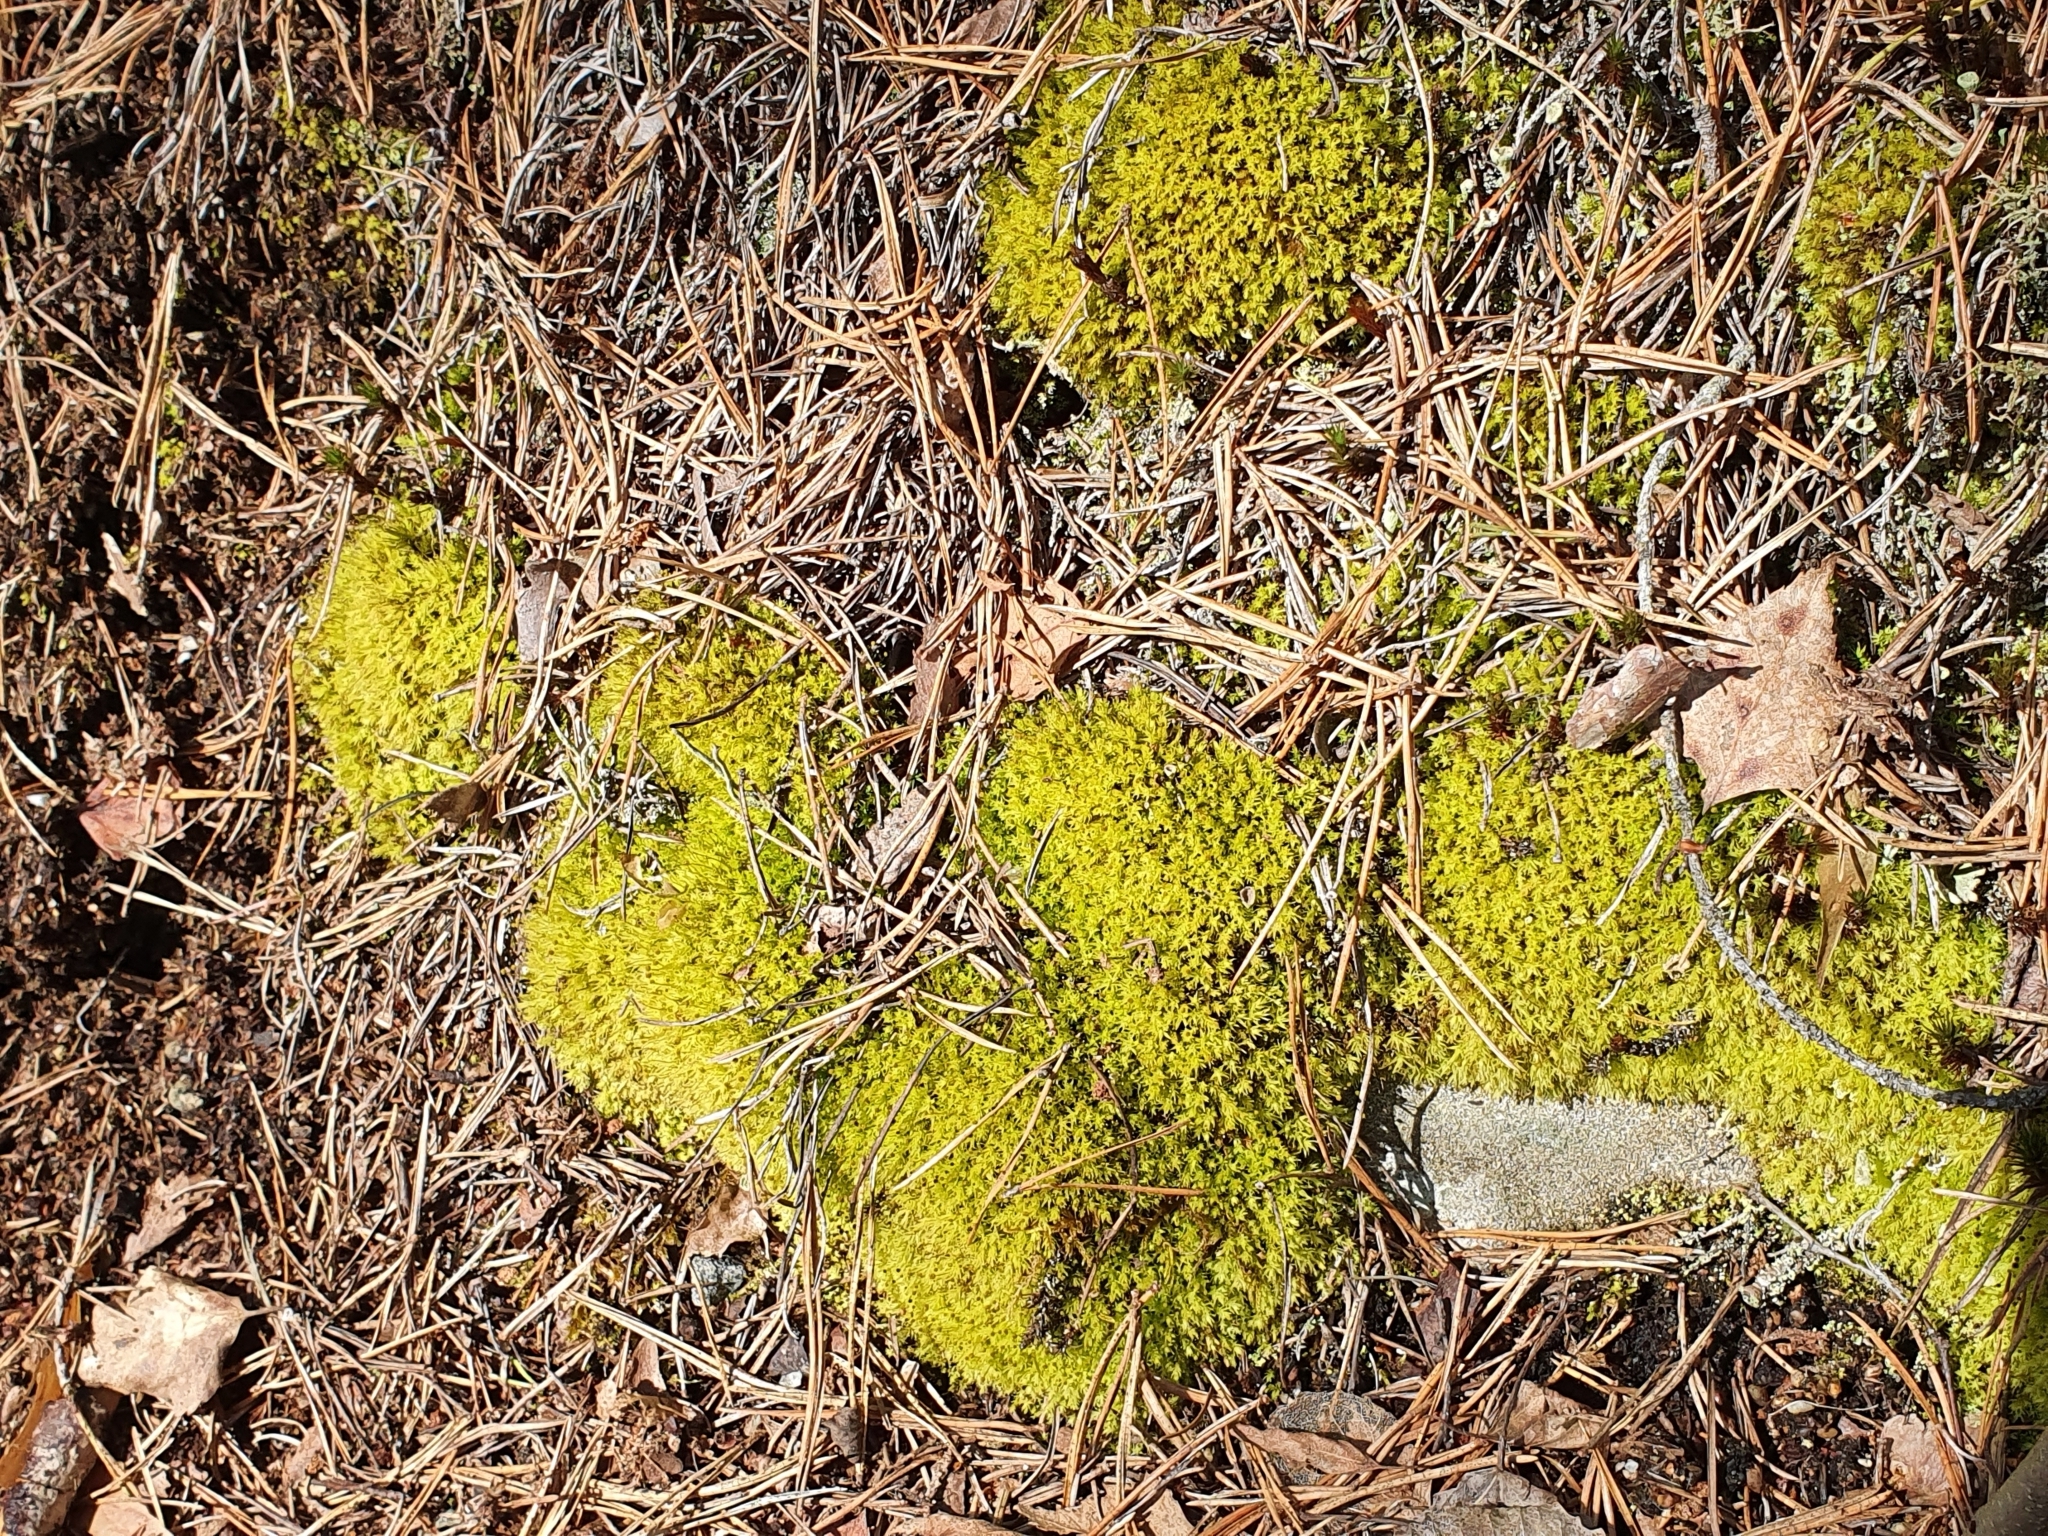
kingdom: Plantae
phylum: Bryophyta
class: Bryopsida
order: Aulacomniales
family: Aulacomniaceae
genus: Aulacomnium
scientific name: Aulacomnium androgynum
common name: Little groove moss
